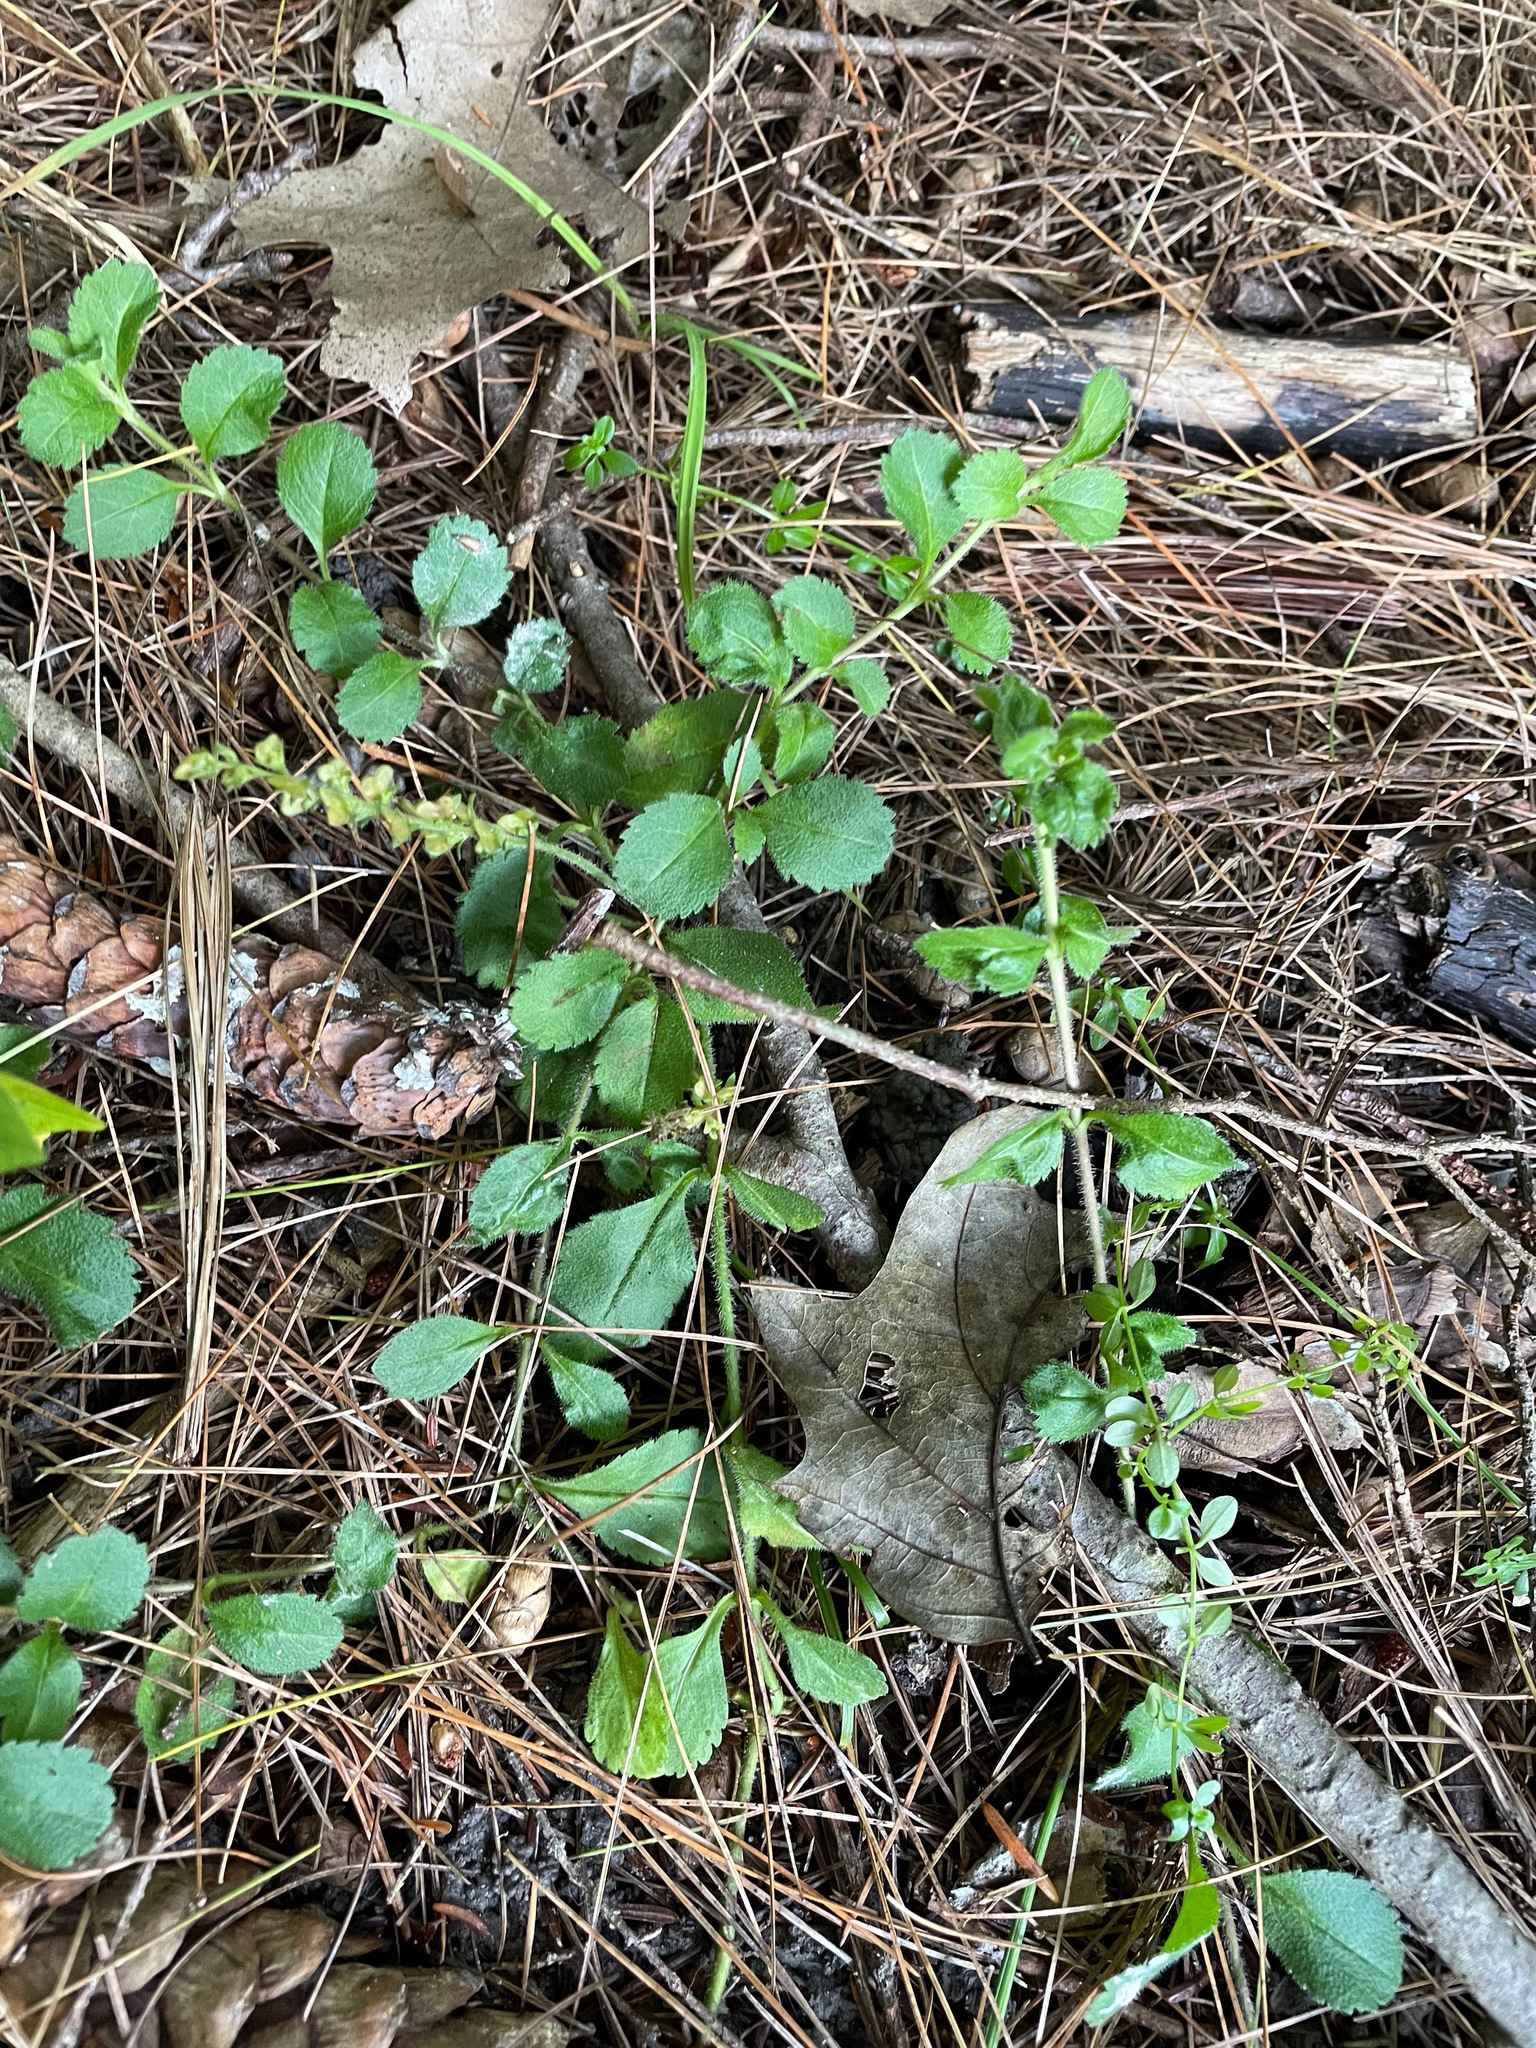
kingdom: Plantae
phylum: Tracheophyta
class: Magnoliopsida
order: Lamiales
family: Plantaginaceae
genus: Veronica
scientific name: Veronica officinalis
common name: Common speedwell
